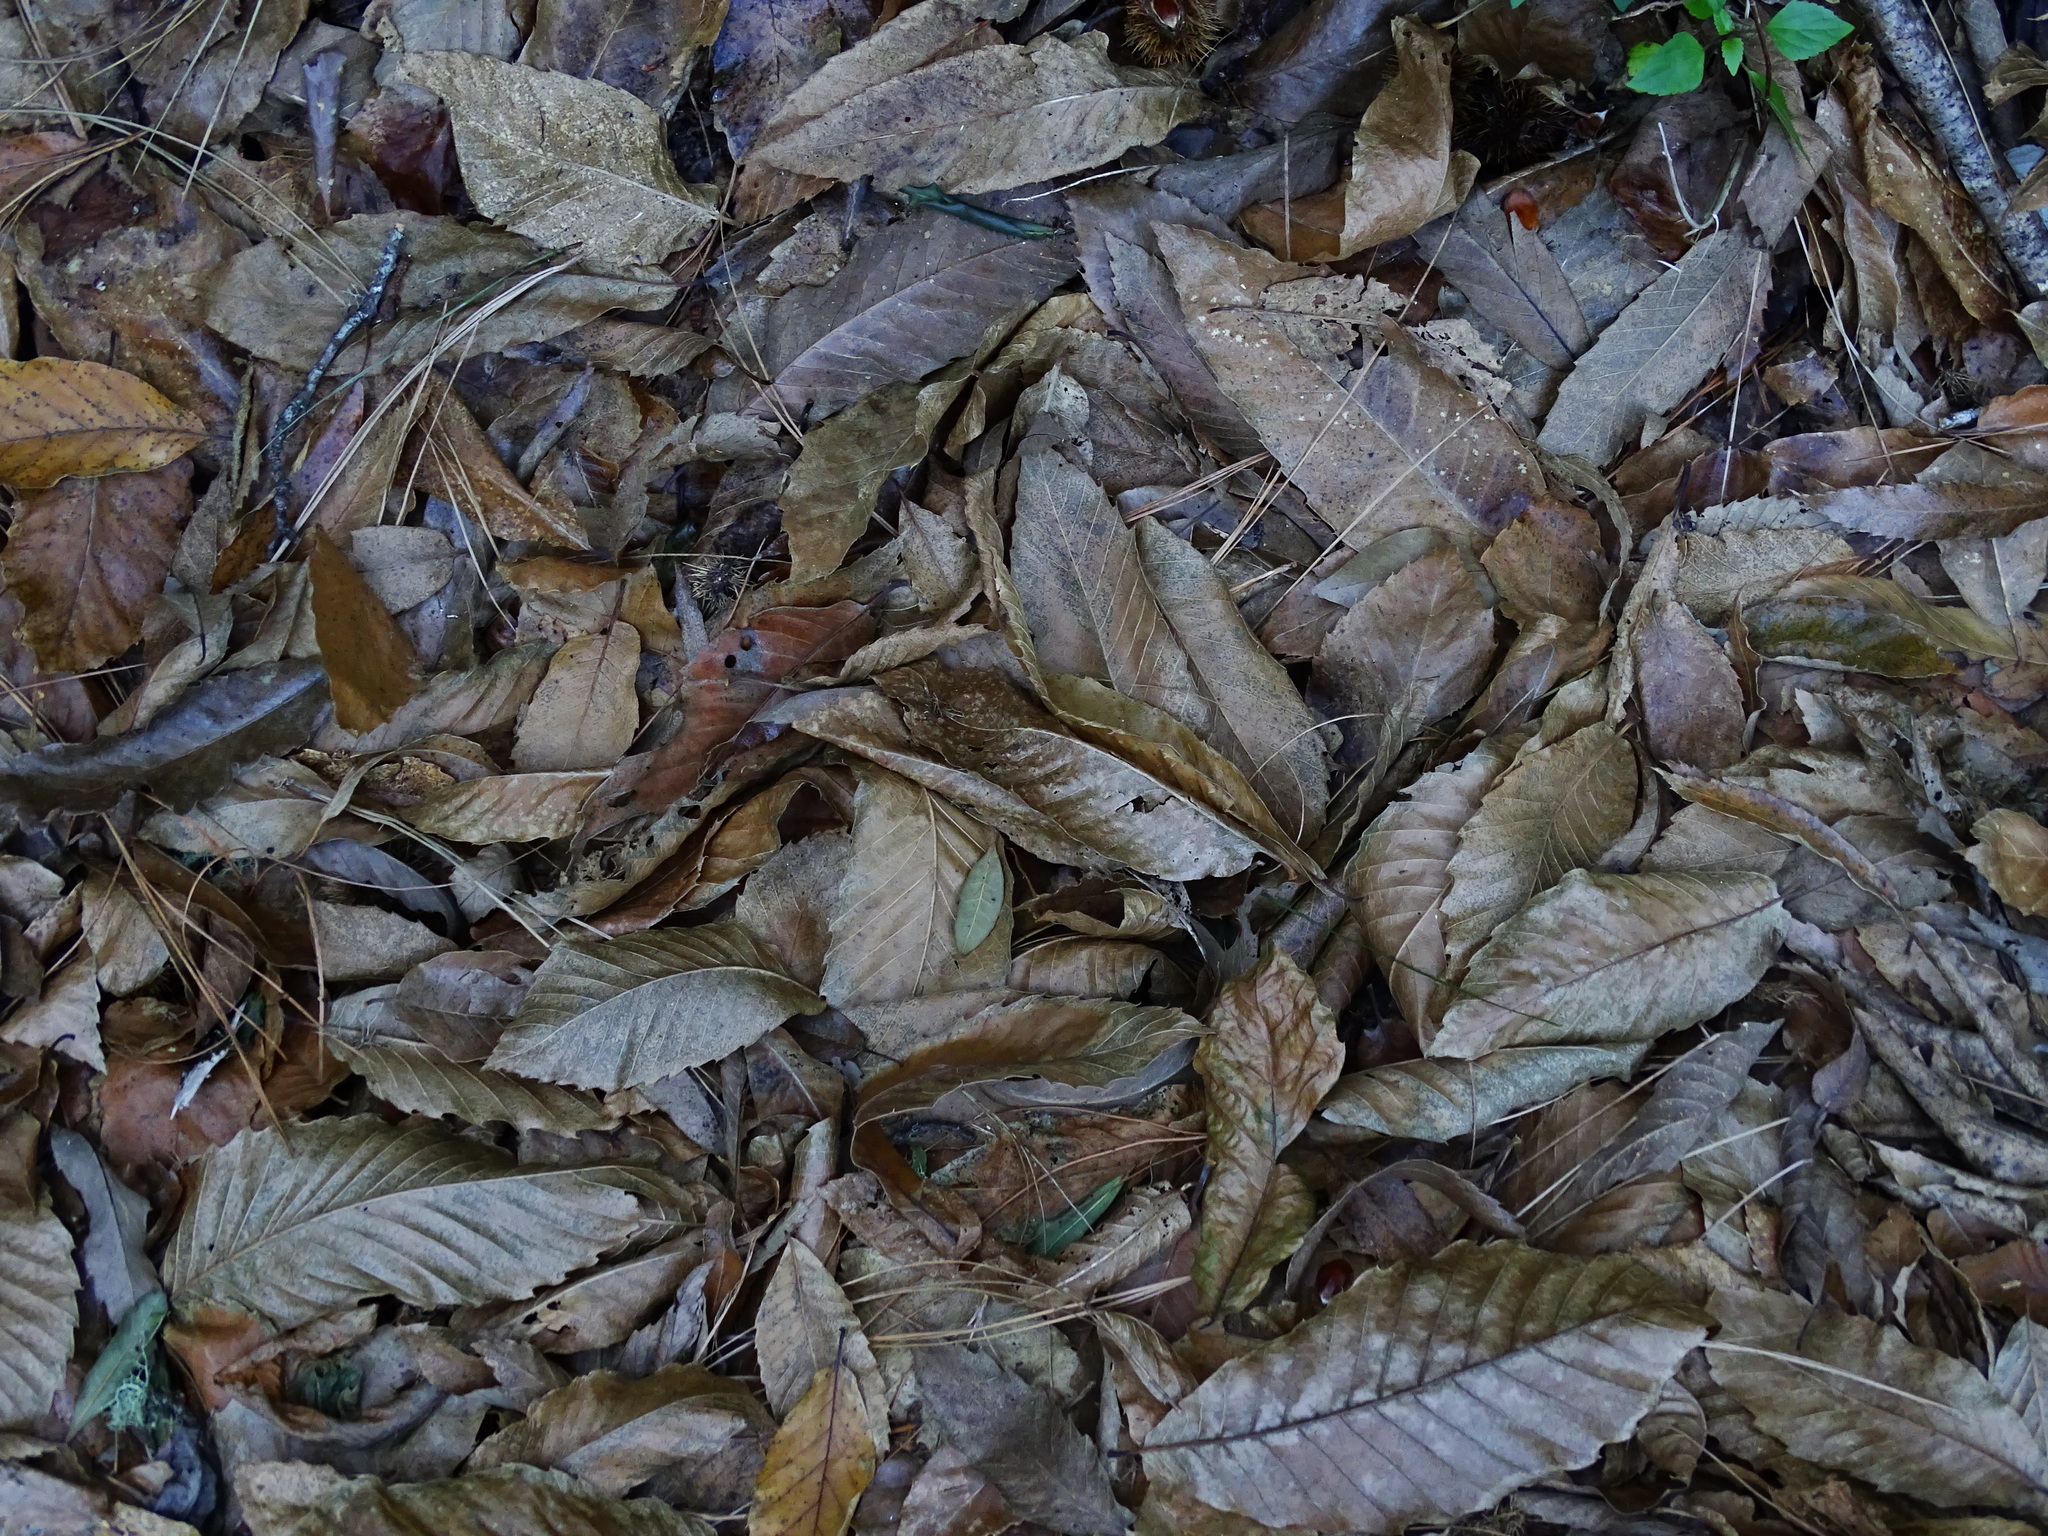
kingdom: Plantae
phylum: Tracheophyta
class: Magnoliopsida
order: Fagales
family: Fagaceae
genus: Castanea
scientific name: Castanea sativa
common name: Sweet chestnut
